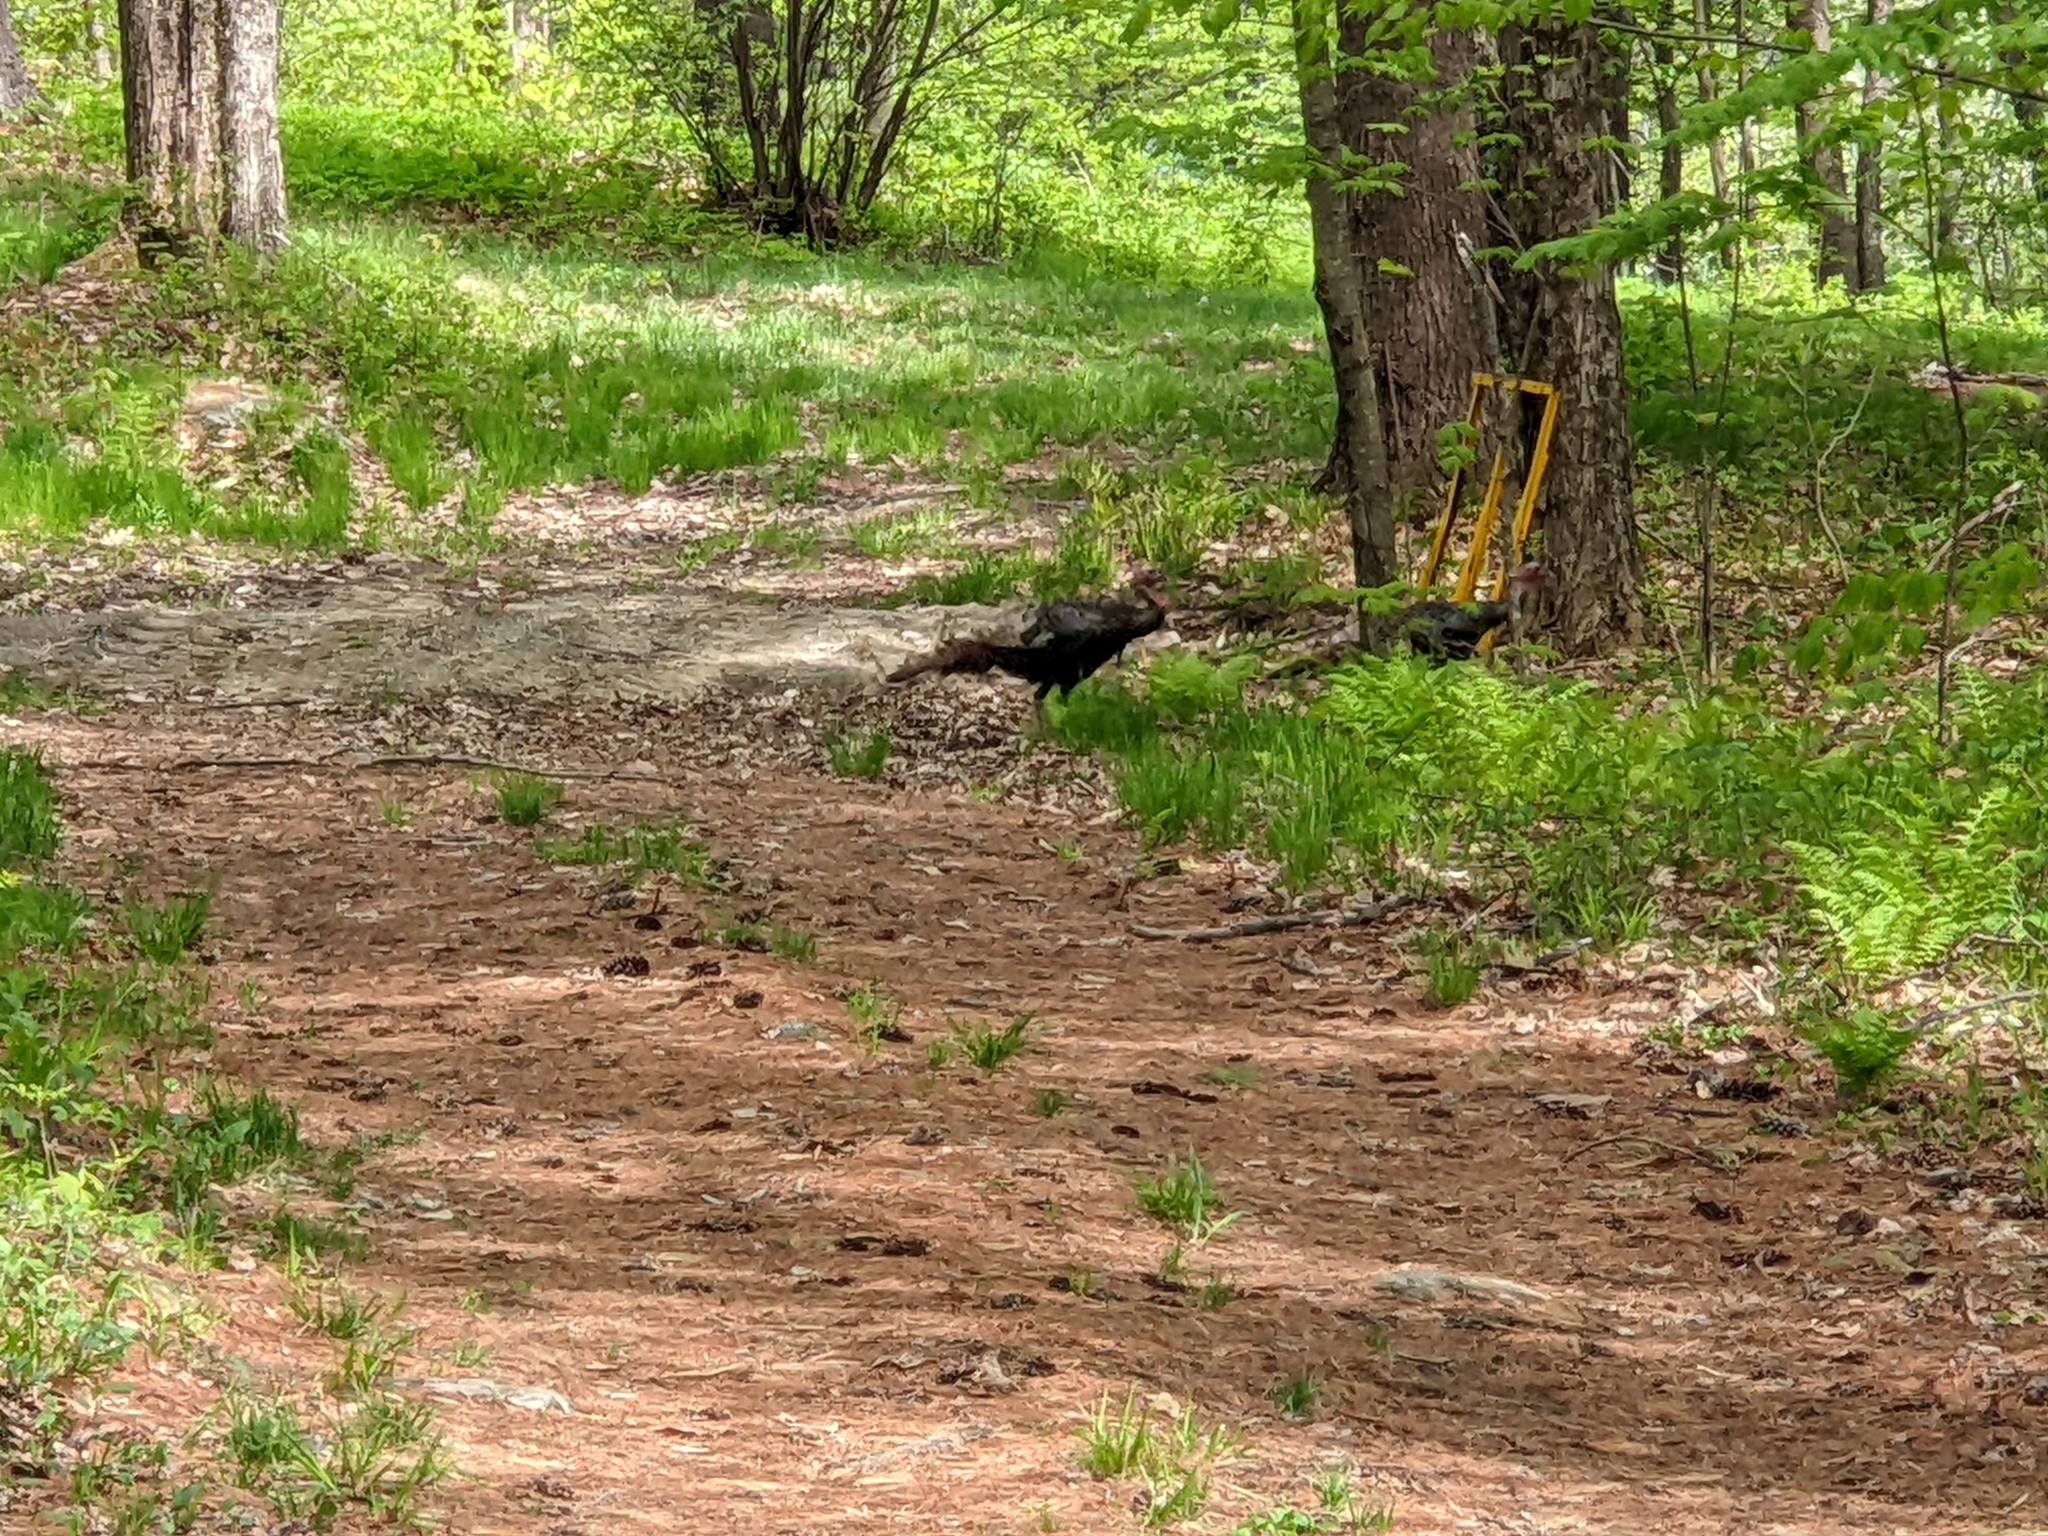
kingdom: Animalia
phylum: Chordata
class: Aves
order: Galliformes
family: Phasianidae
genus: Meleagris
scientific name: Meleagris gallopavo
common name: Wild turkey
